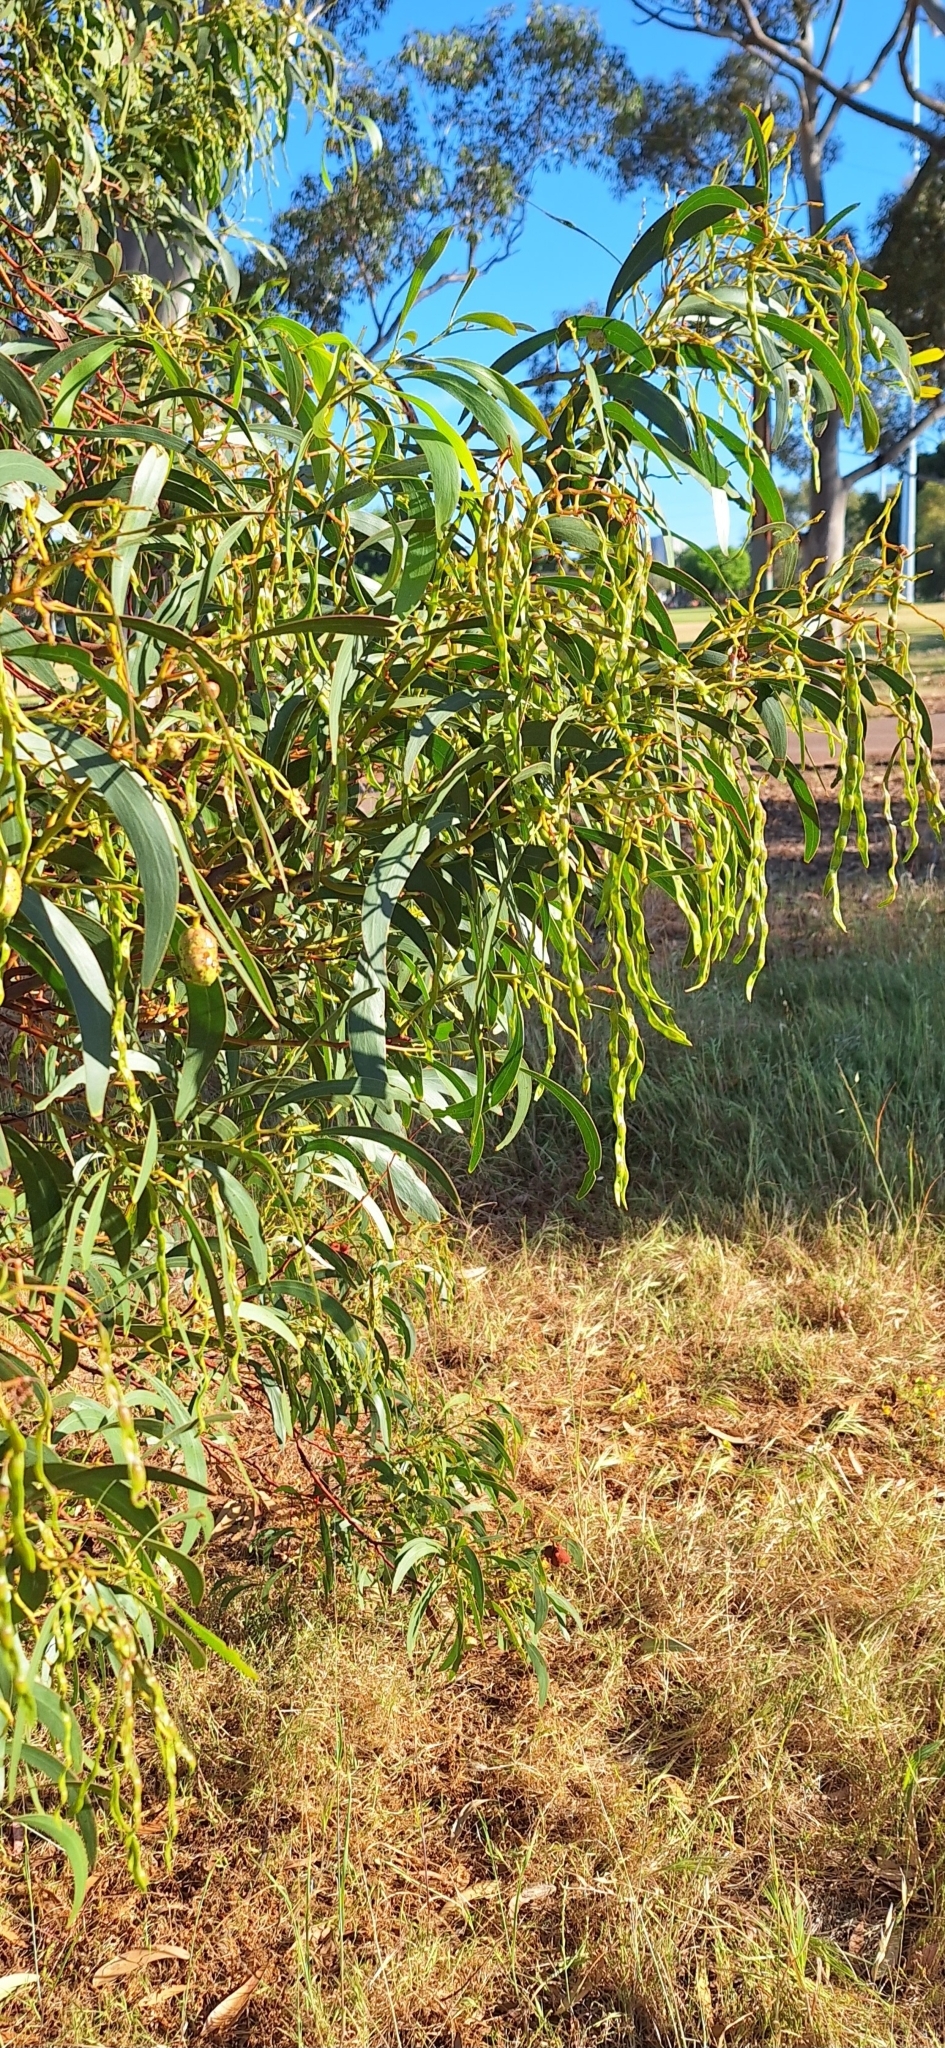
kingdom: Plantae
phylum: Tracheophyta
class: Magnoliopsida
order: Fabales
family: Fabaceae
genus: Acacia
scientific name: Acacia pycnantha
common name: Golden wattle
